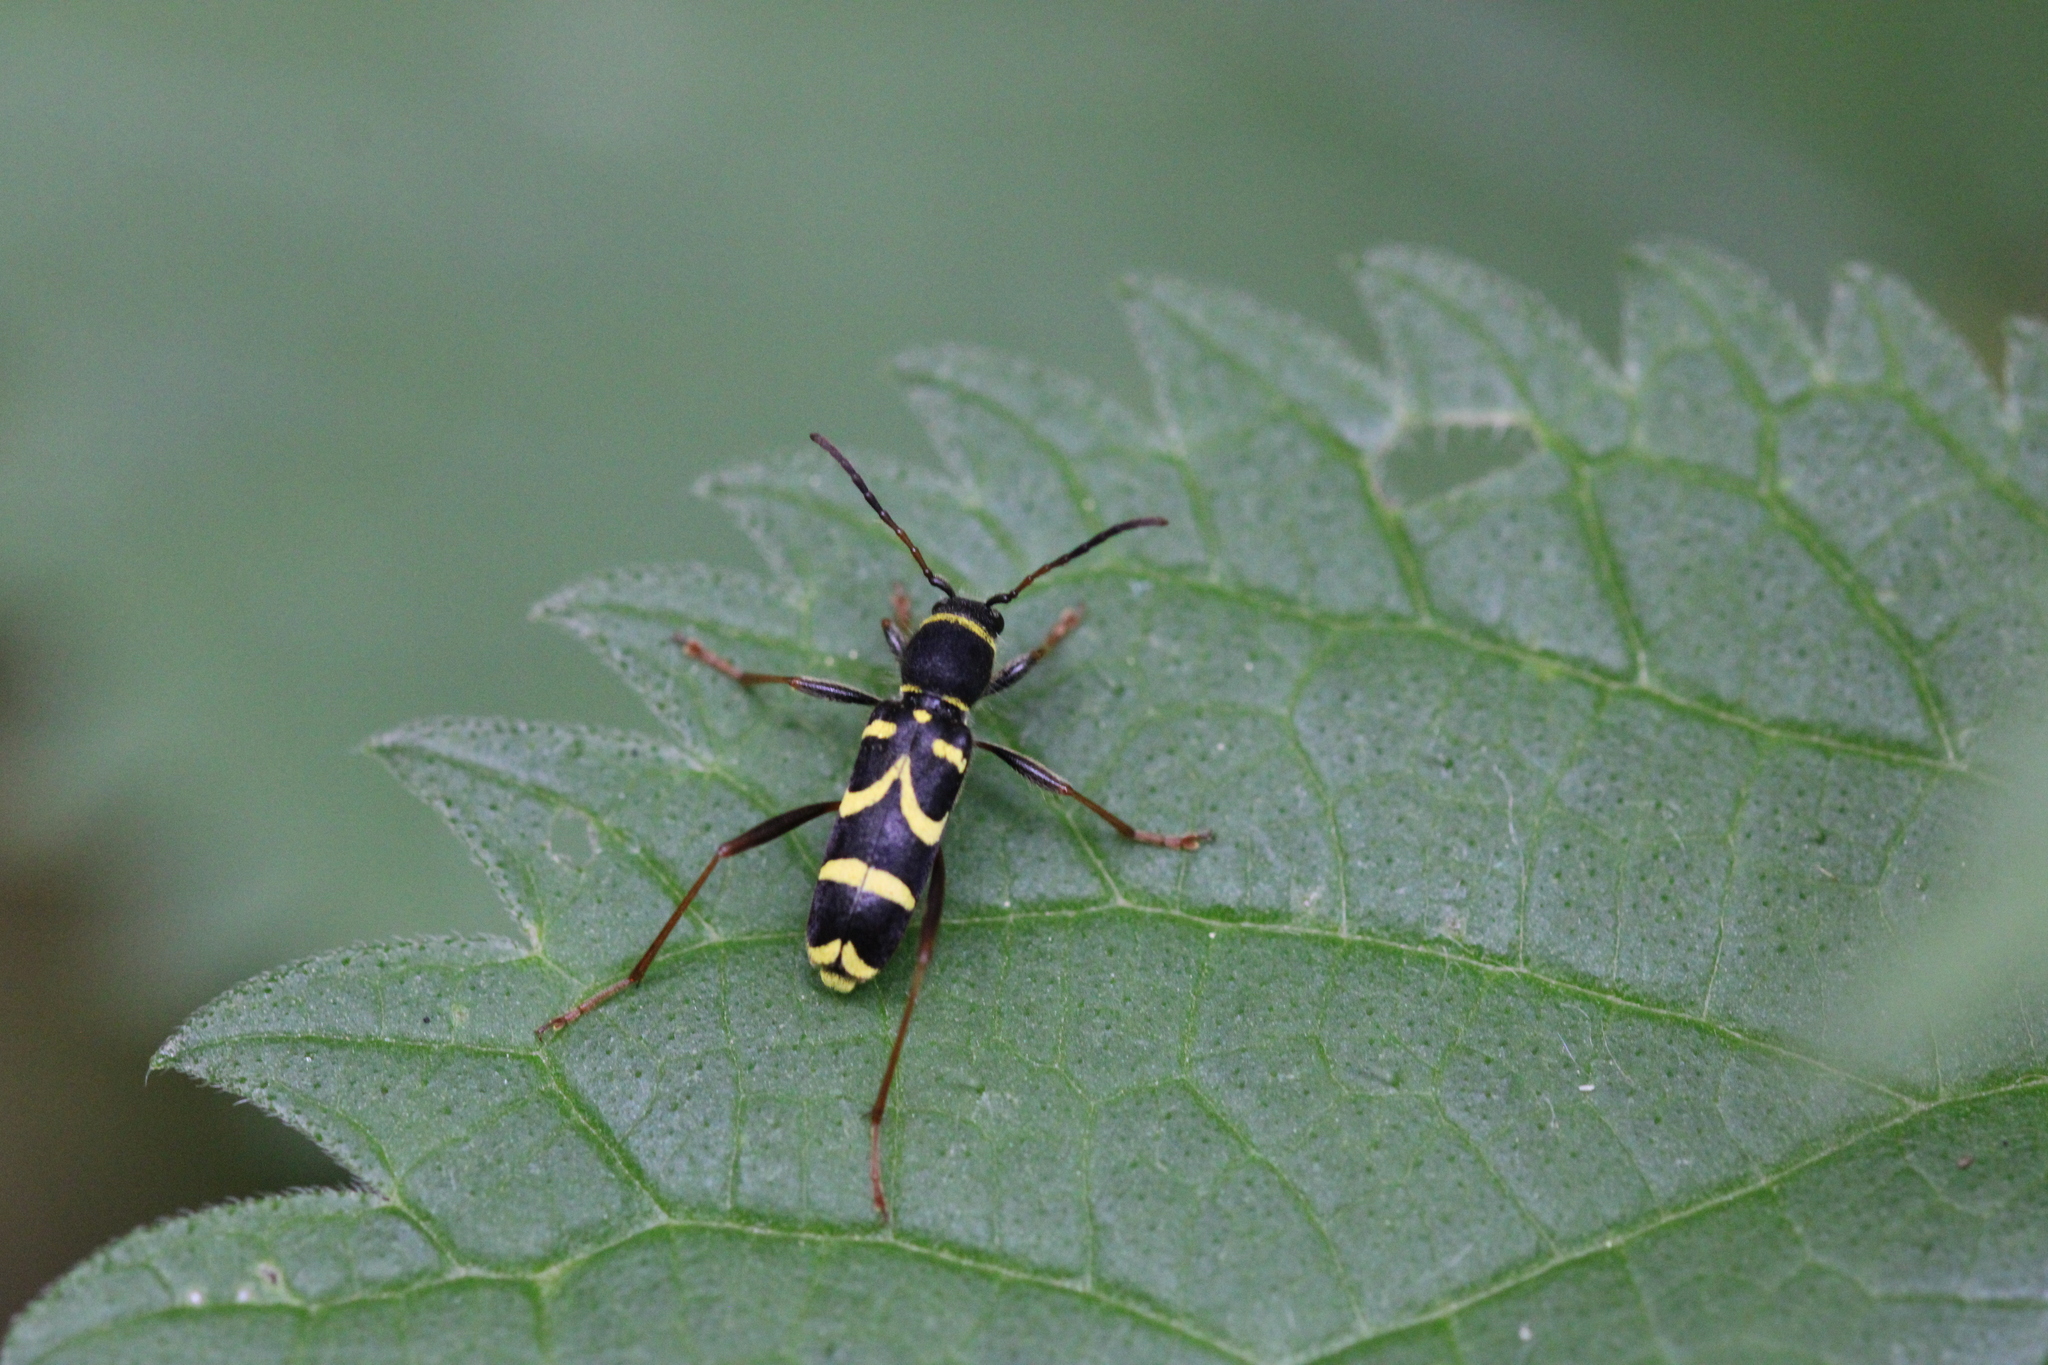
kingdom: Animalia
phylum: Arthropoda
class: Insecta
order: Coleoptera
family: Cerambycidae
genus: Clytus
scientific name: Clytus arietis
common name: Wasp beetle
